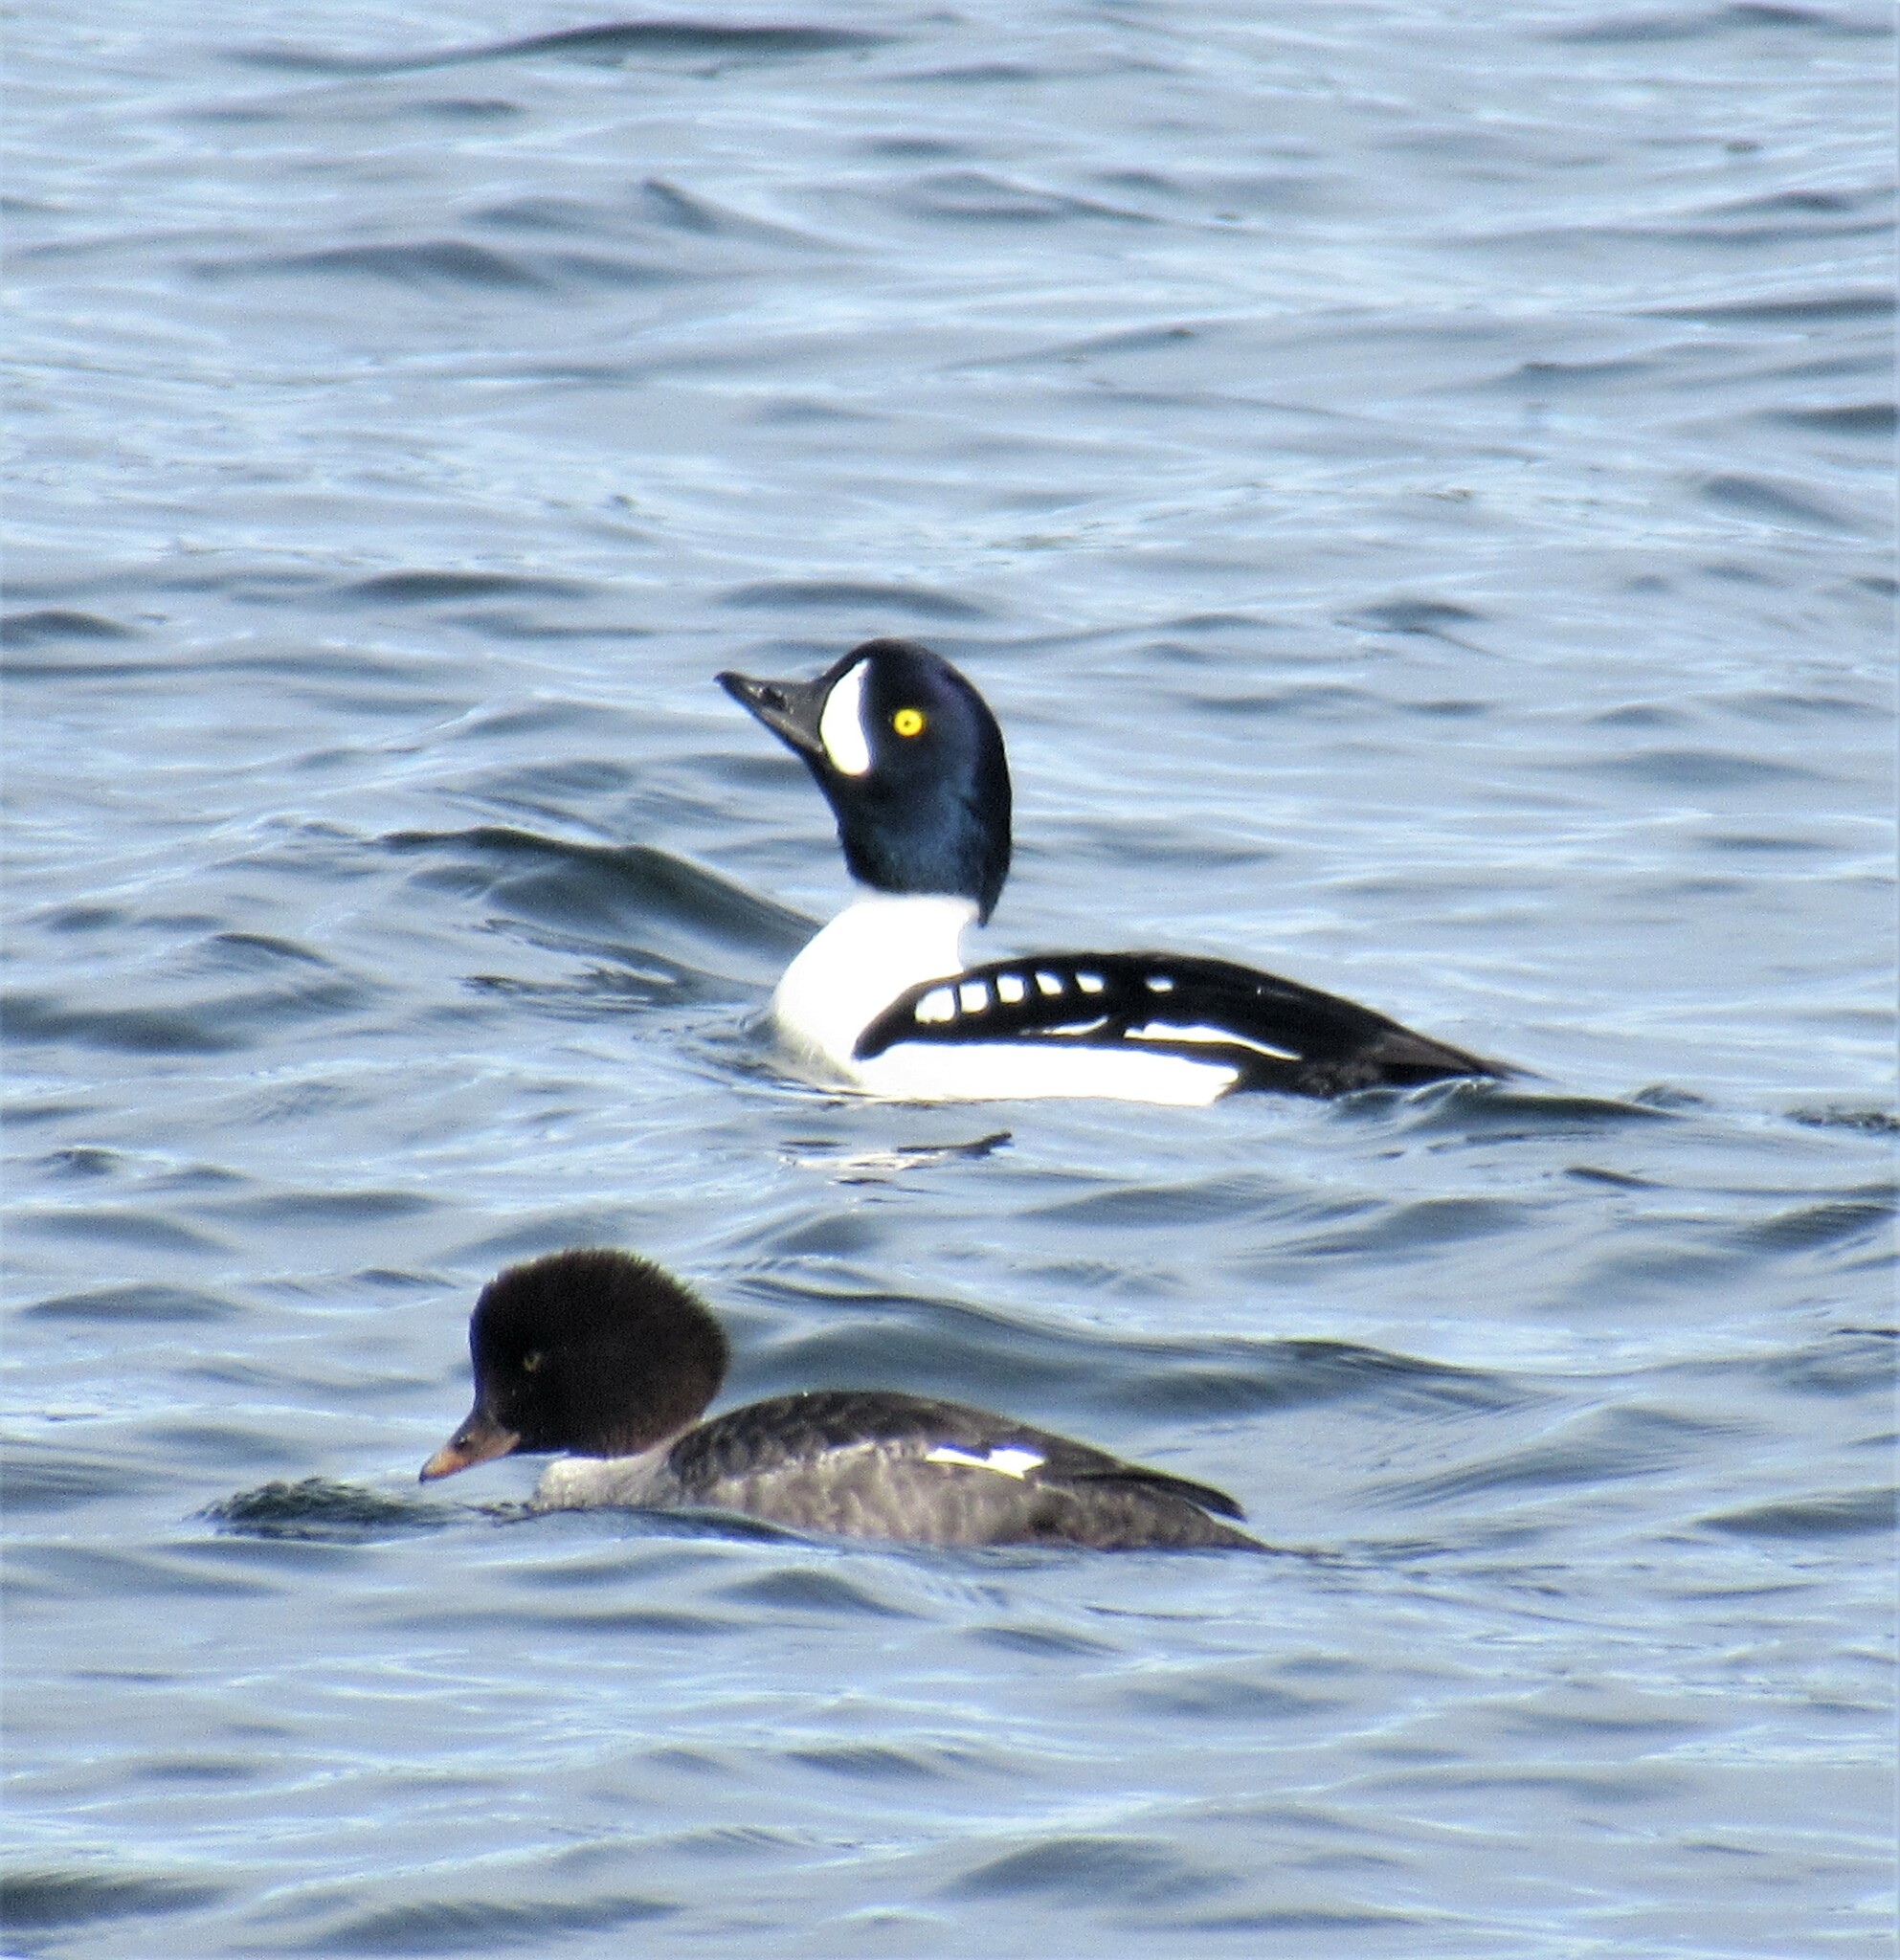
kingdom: Animalia
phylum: Chordata
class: Aves
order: Anseriformes
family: Anatidae
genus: Bucephala
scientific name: Bucephala islandica
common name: Barrow's goldeneye
